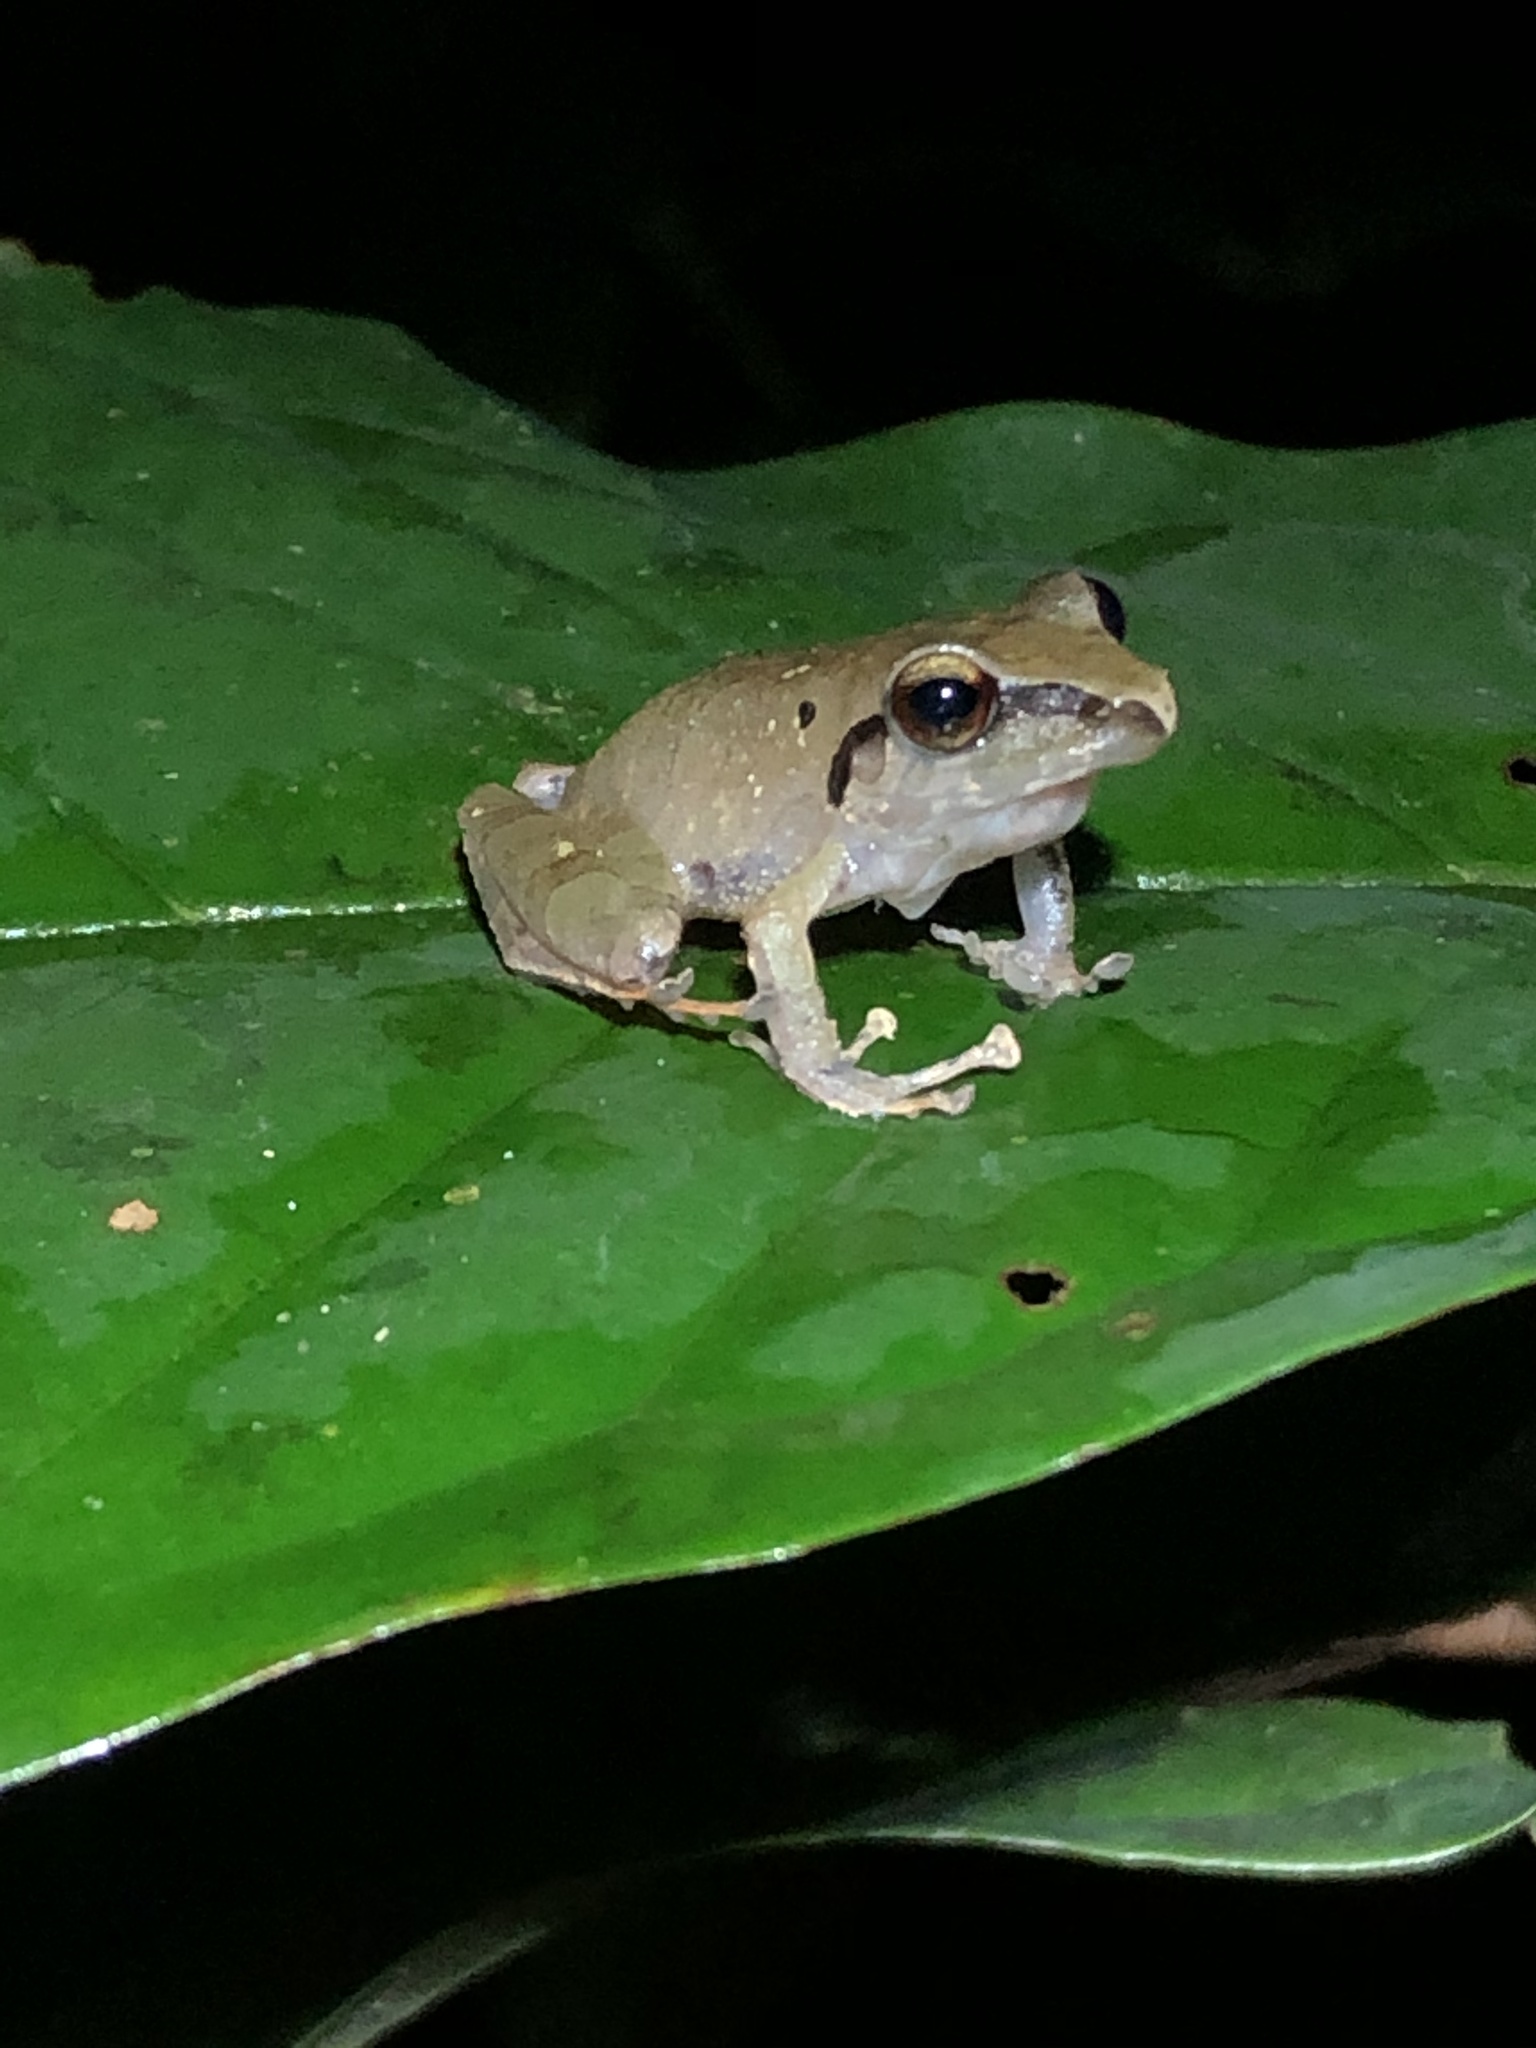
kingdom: Animalia
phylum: Chordata
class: Amphibia
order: Anura
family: Craugastoridae
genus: Pristimantis
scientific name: Pristimantis reichlei
